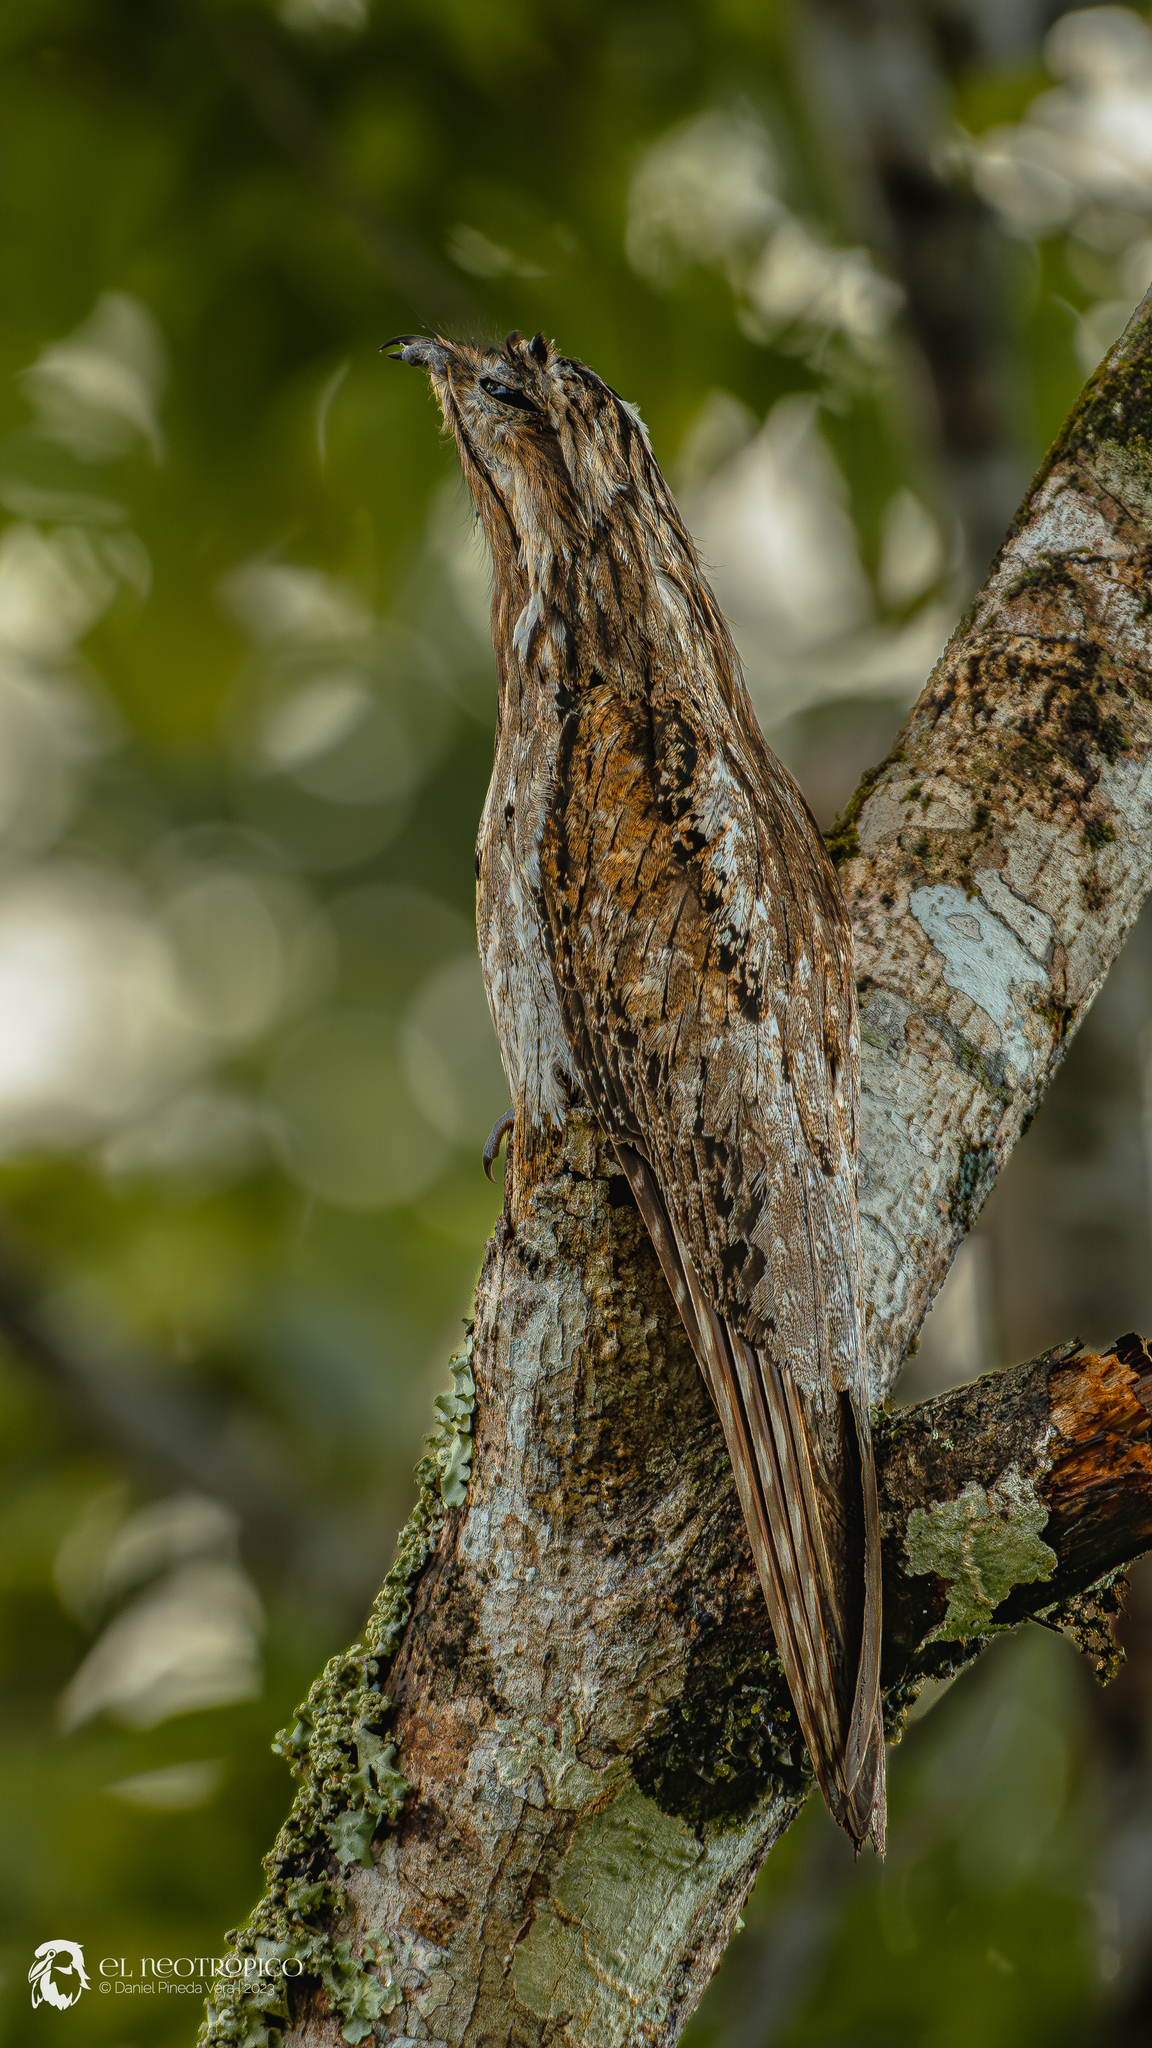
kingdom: Animalia
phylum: Chordata
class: Aves
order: Nyctibiiformes
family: Nyctibiidae
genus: Nyctibius
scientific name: Nyctibius jamaicensis
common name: Northern potoo
